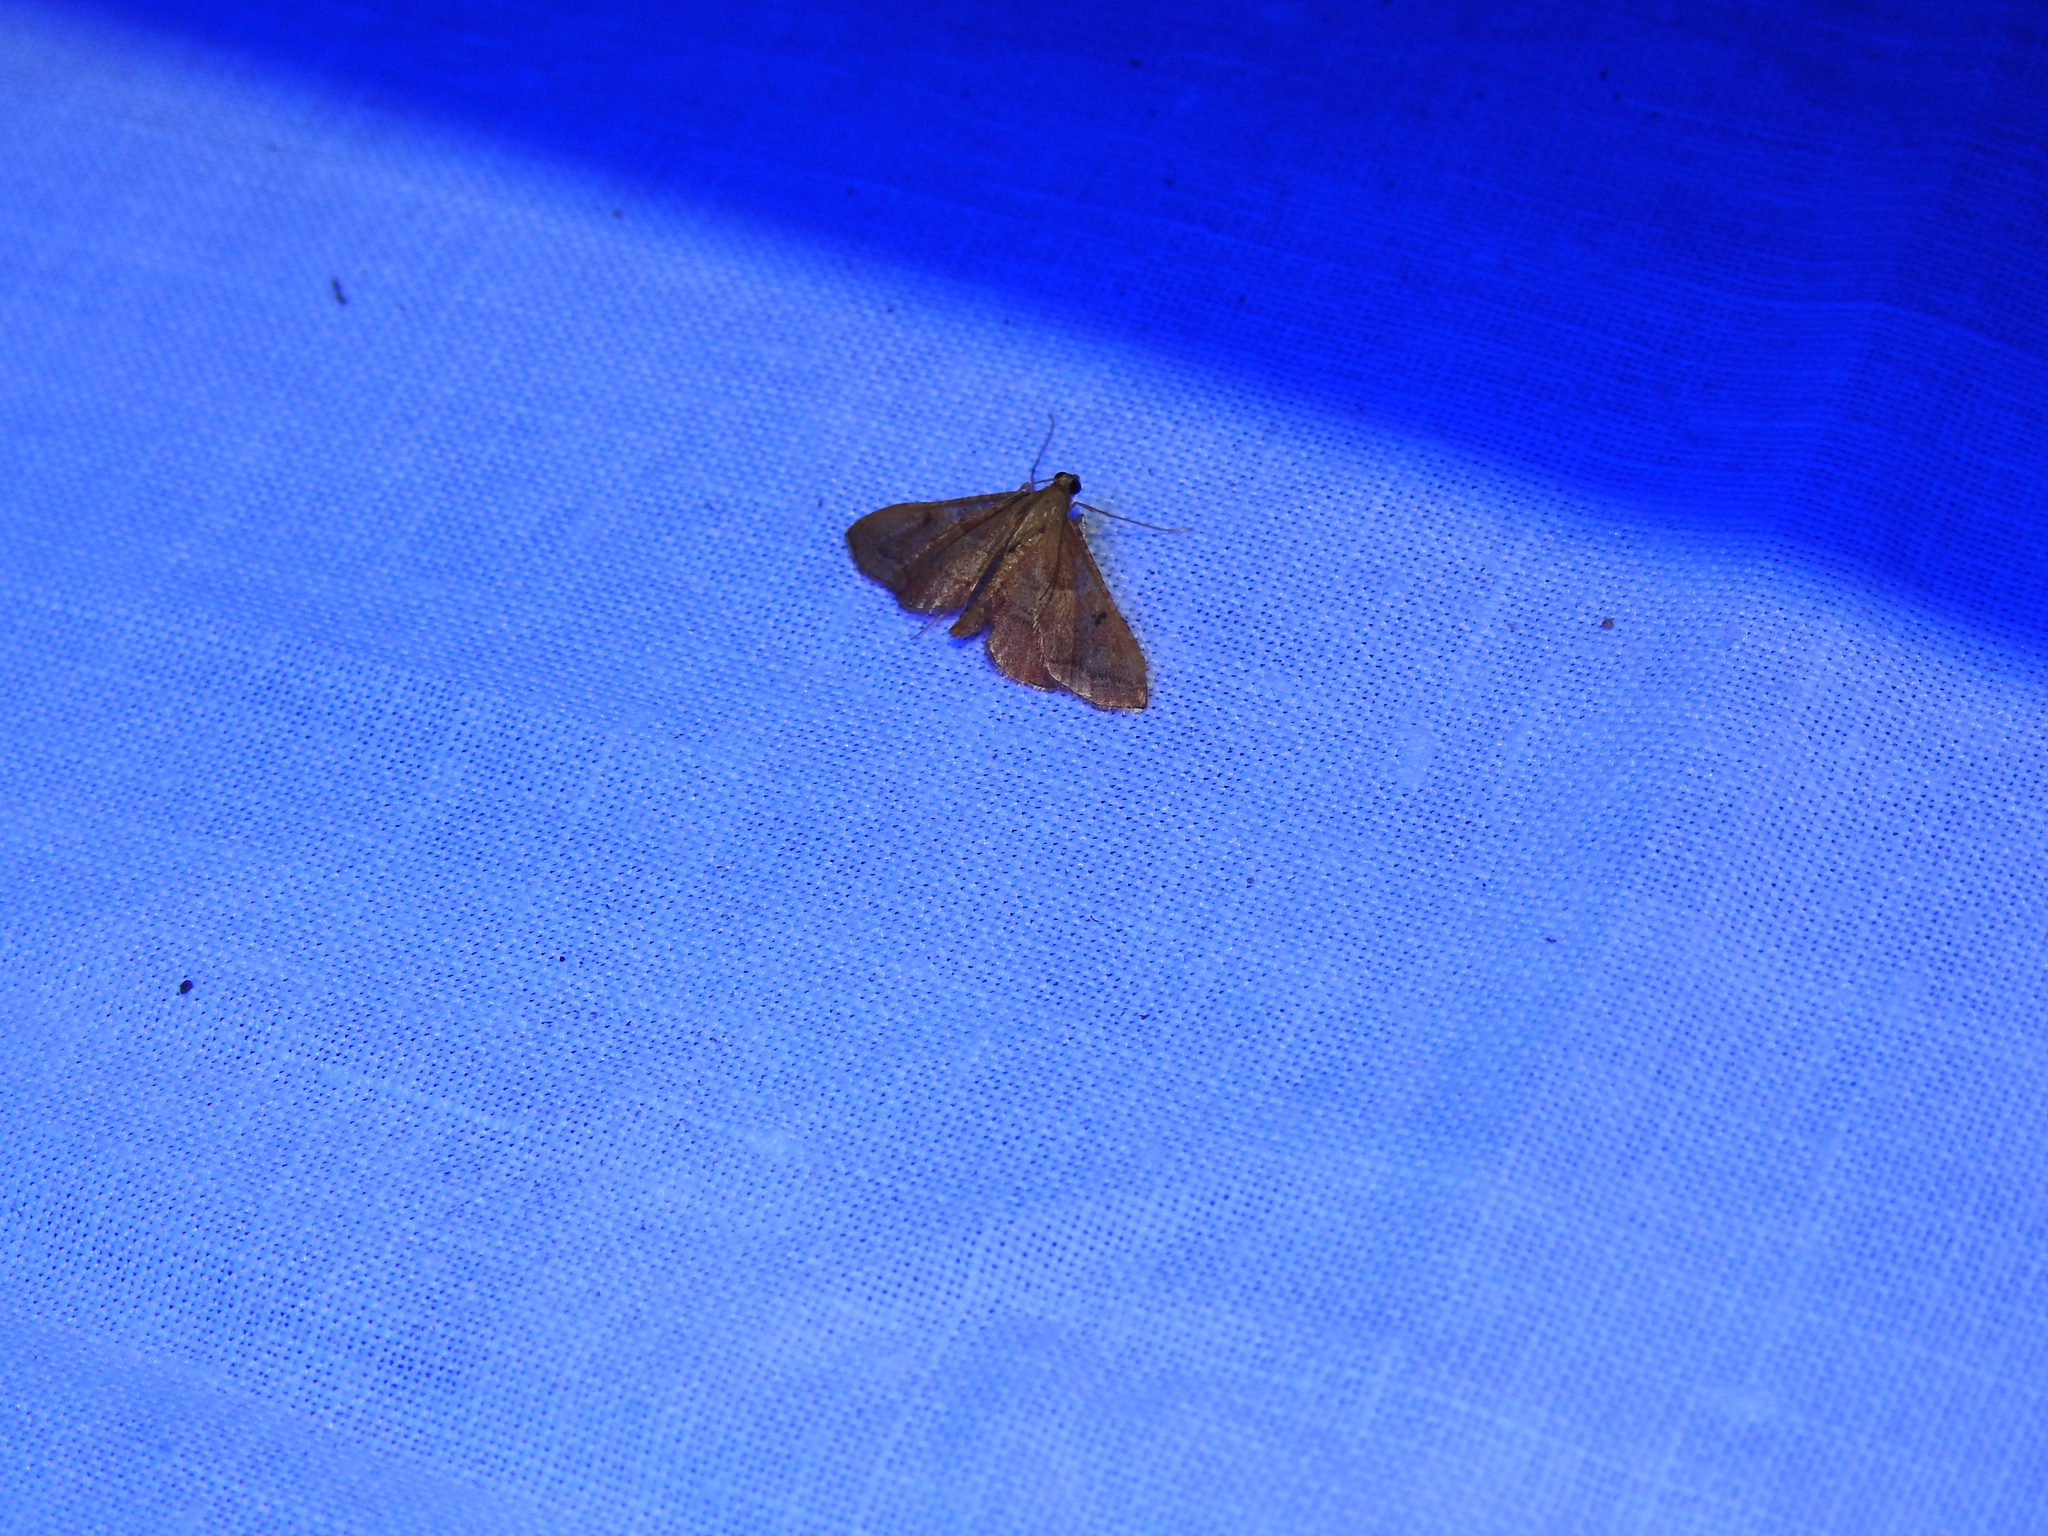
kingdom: Animalia
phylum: Arthropoda
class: Insecta
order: Lepidoptera
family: Pyralidae
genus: Endotricha
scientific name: Endotricha flammealis
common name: Rosy tabby
